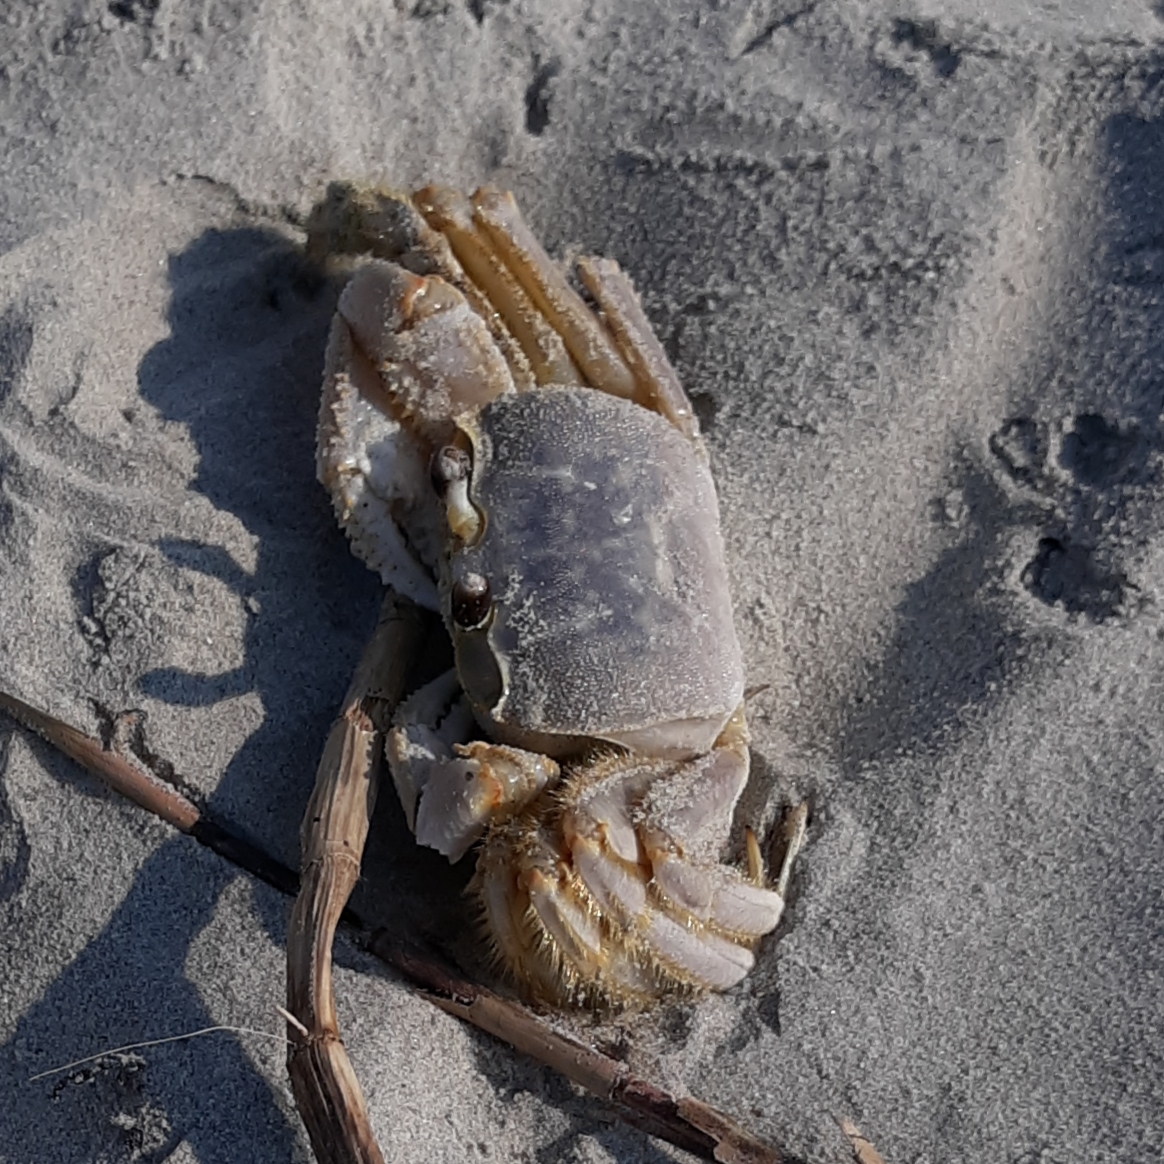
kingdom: Animalia
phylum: Arthropoda
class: Malacostraca
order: Decapoda
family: Ocypodidae
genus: Ocypode
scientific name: Ocypode quadrata
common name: Ghost crab
